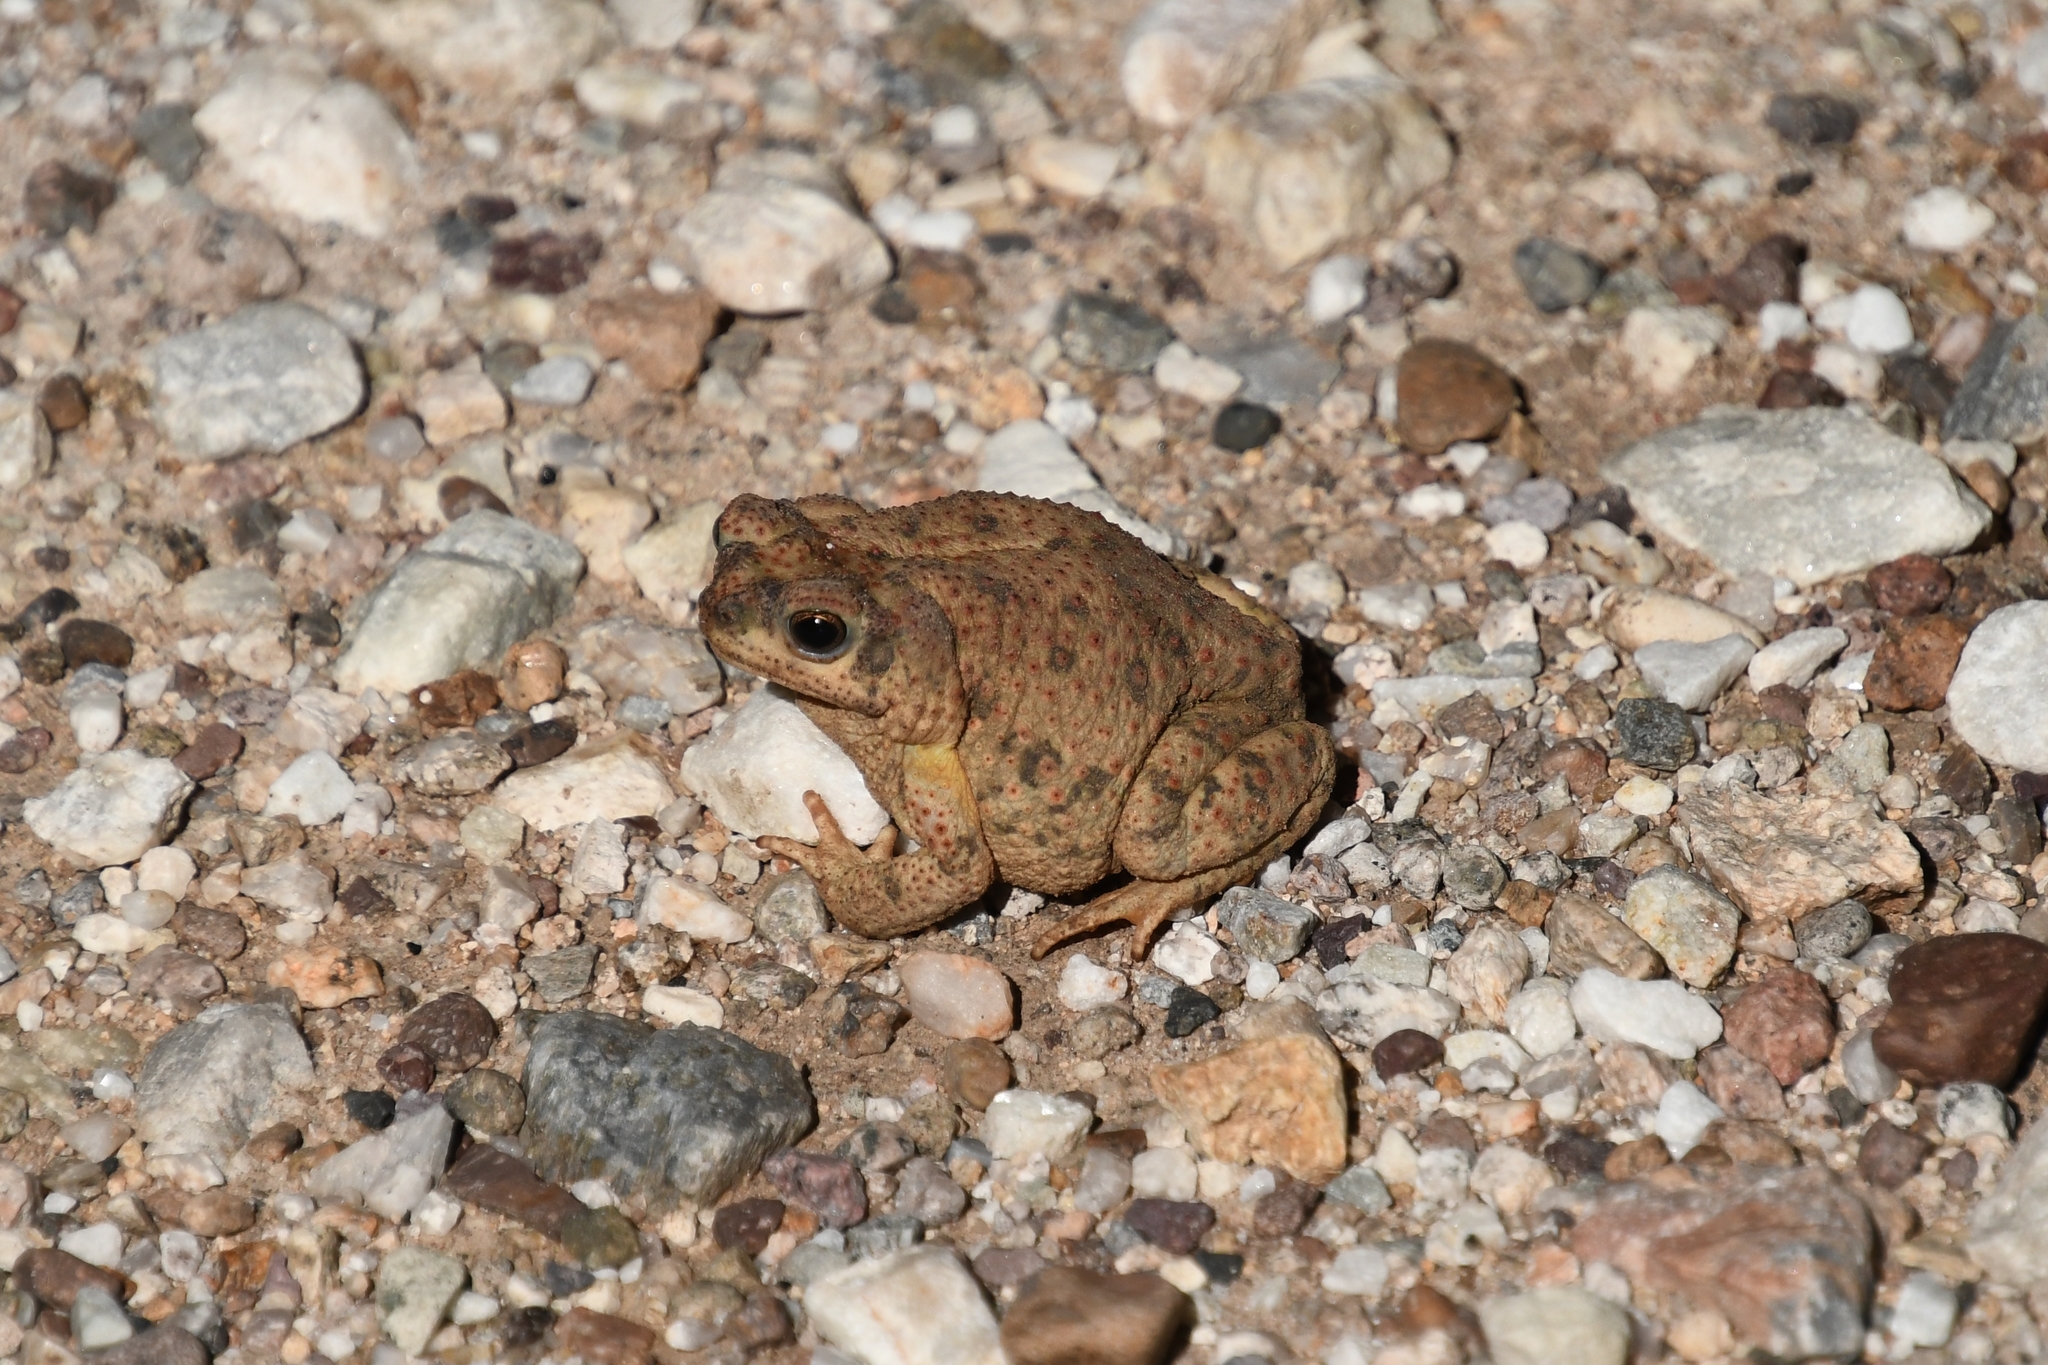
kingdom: Animalia
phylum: Chordata
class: Amphibia
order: Anura
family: Bufonidae
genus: Anaxyrus
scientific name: Anaxyrus punctatus
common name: Red-spotted toad
